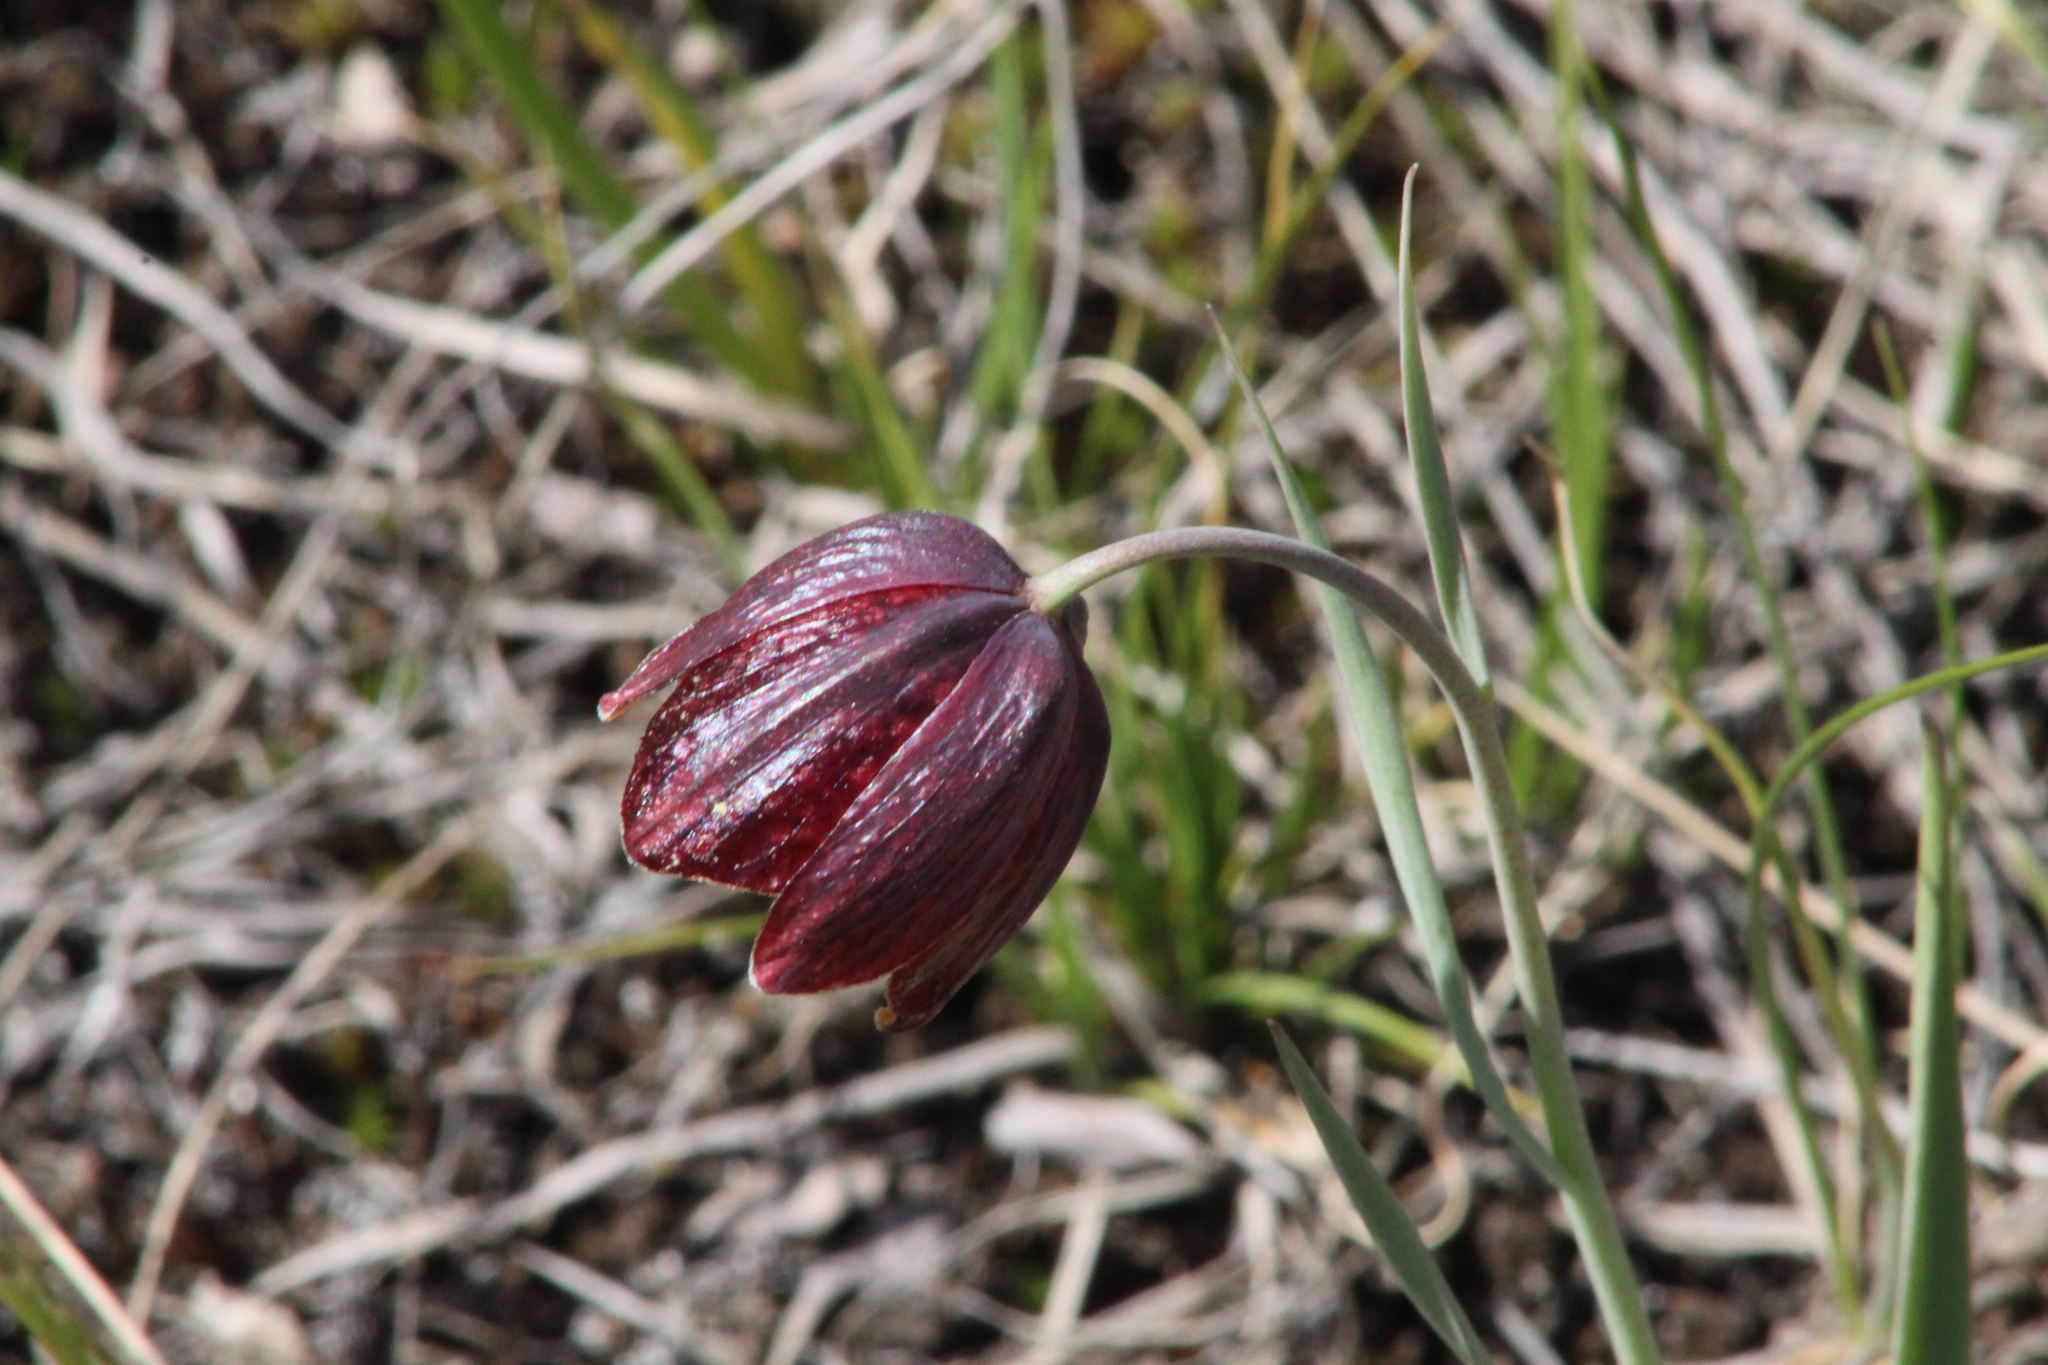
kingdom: Plantae
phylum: Tracheophyta
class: Liliopsida
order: Liliales
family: Liliaceae
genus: Fritillaria
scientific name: Fritillaria meleagroides
